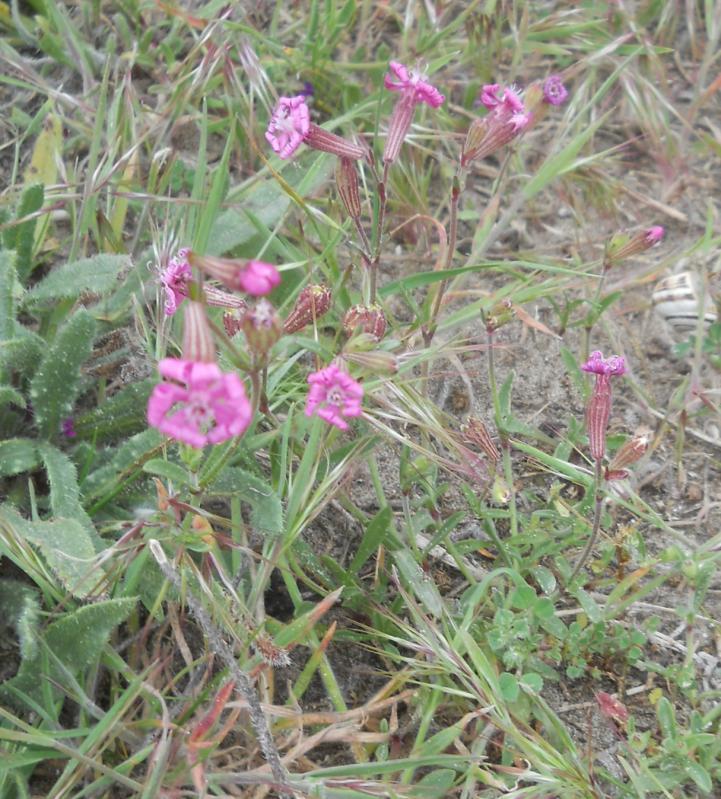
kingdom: Plantae
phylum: Tracheophyta
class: Magnoliopsida
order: Caryophyllales
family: Caryophyllaceae
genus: Silene
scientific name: Silene colorata
